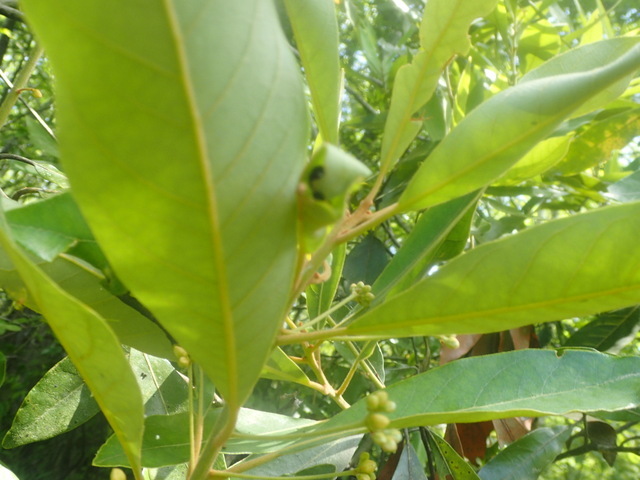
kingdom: Plantae
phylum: Tracheophyta
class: Magnoliopsida
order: Laurales
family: Lauraceae
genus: Persea
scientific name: Persea palustris
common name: Swampbay
